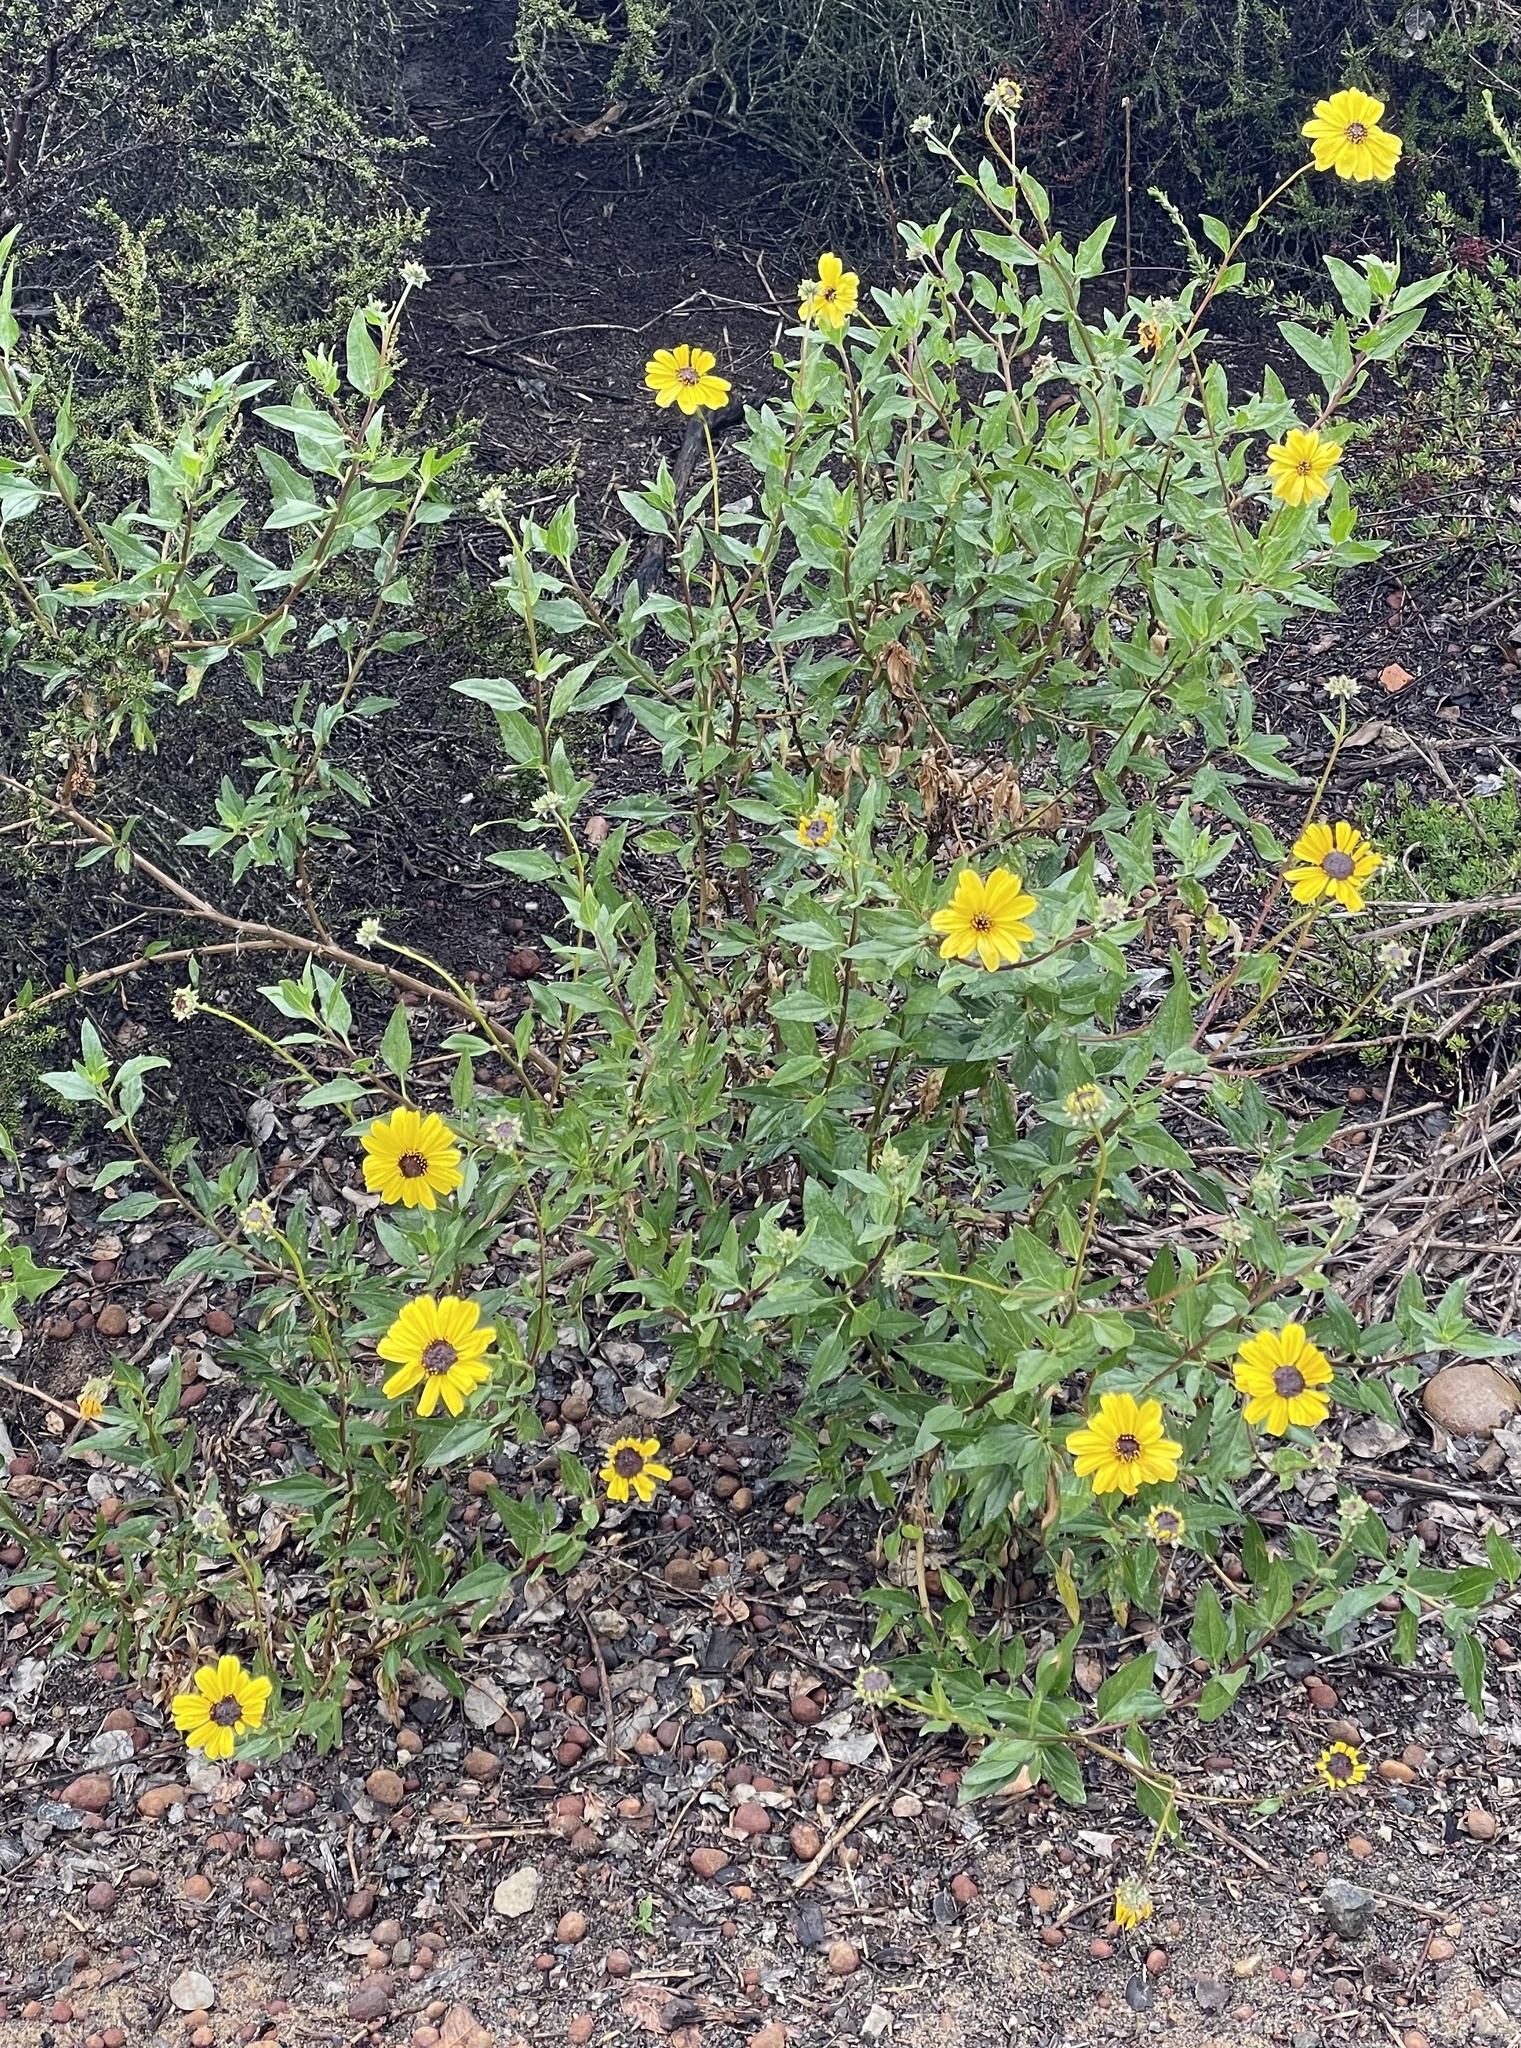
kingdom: Plantae
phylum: Tracheophyta
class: Magnoliopsida
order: Asterales
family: Asteraceae
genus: Encelia
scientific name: Encelia californica
